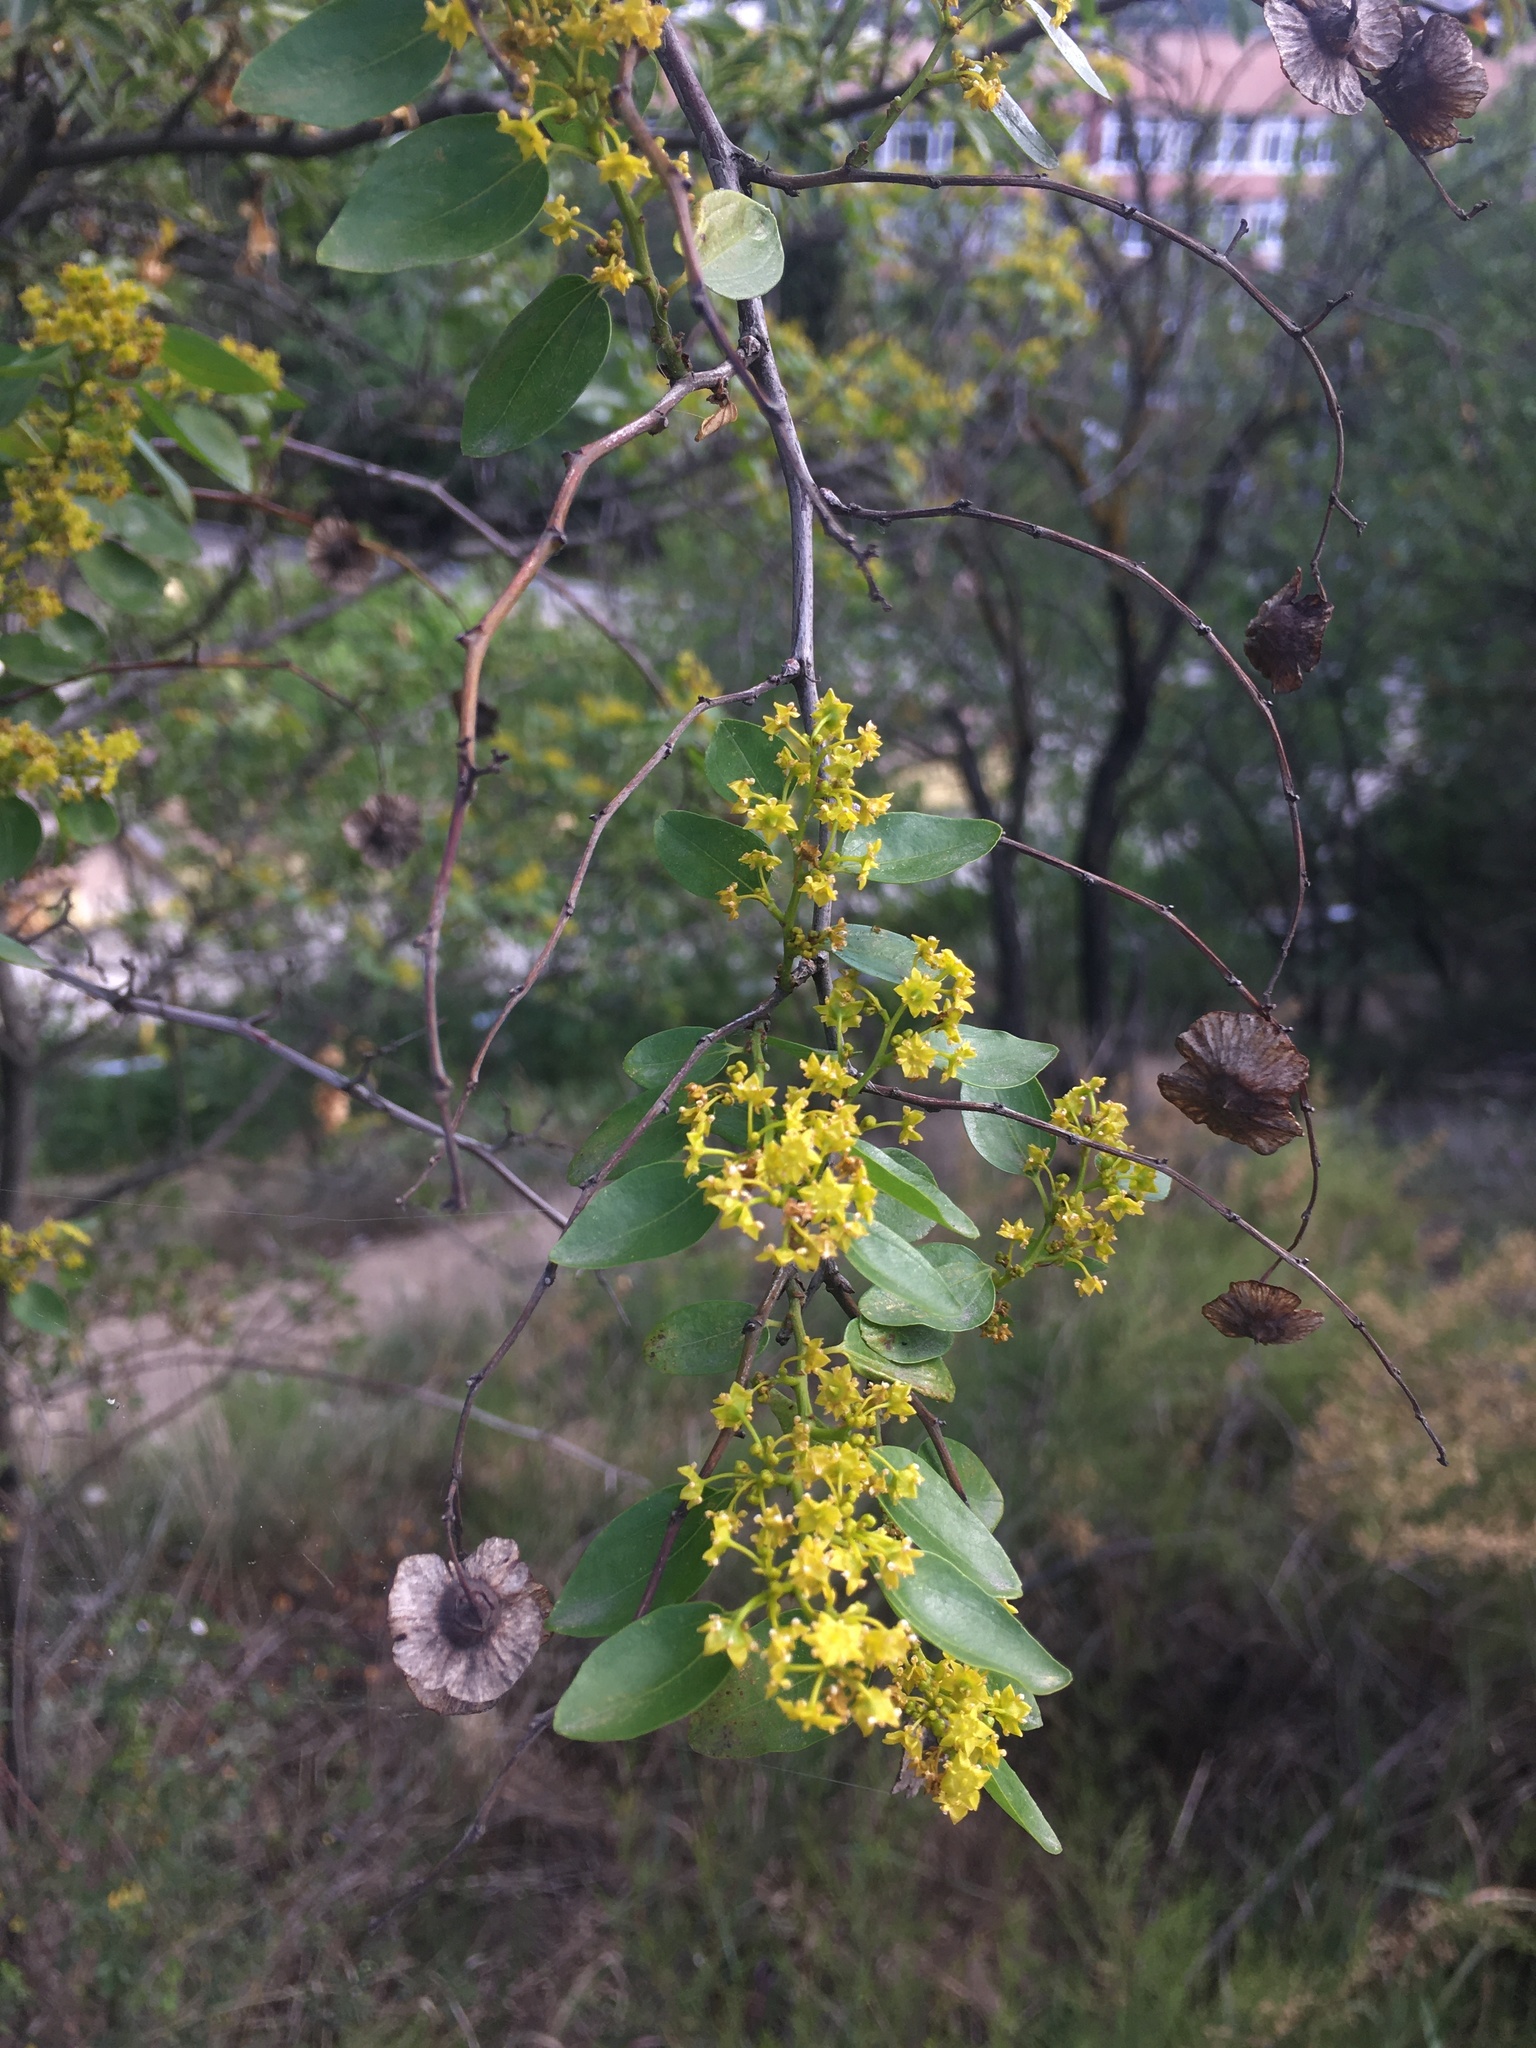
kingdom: Plantae
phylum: Tracheophyta
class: Magnoliopsida
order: Rosales
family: Rhamnaceae
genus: Paliurus
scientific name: Paliurus spina-christi
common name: Jeruselem thorn
